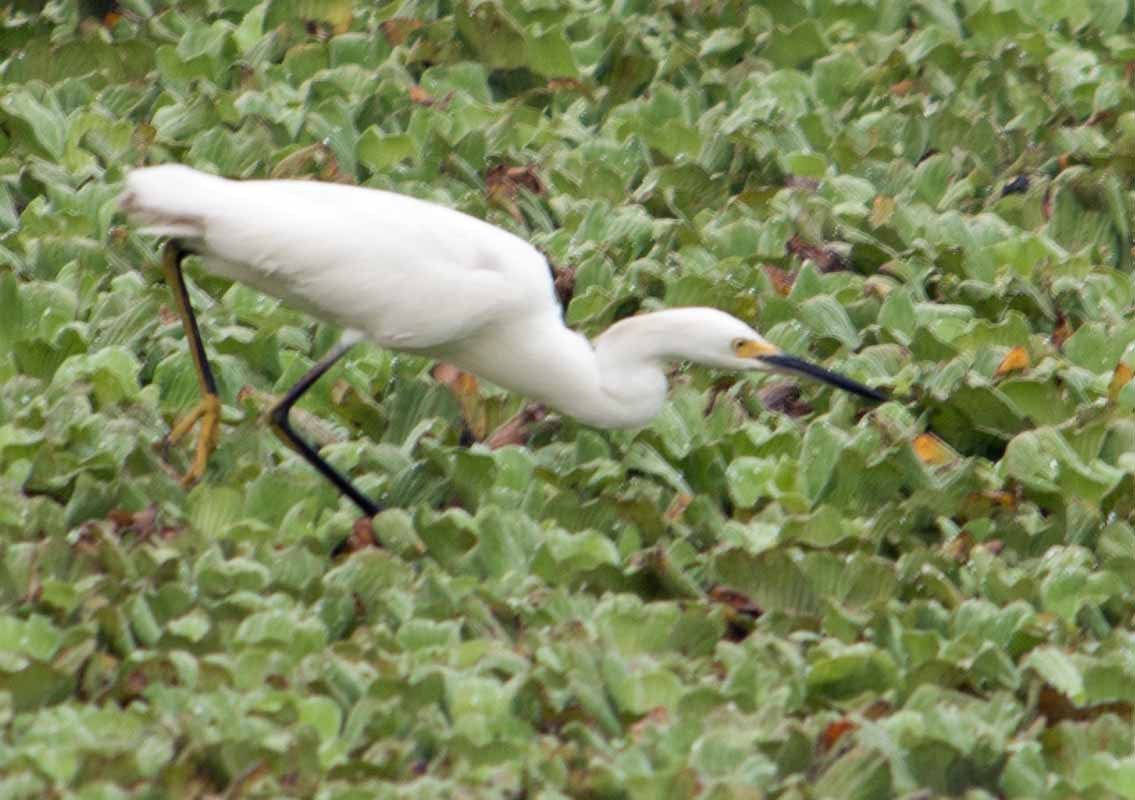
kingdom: Animalia
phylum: Chordata
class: Aves
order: Pelecaniformes
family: Ardeidae
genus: Egretta
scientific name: Egretta thula
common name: Snowy egret
